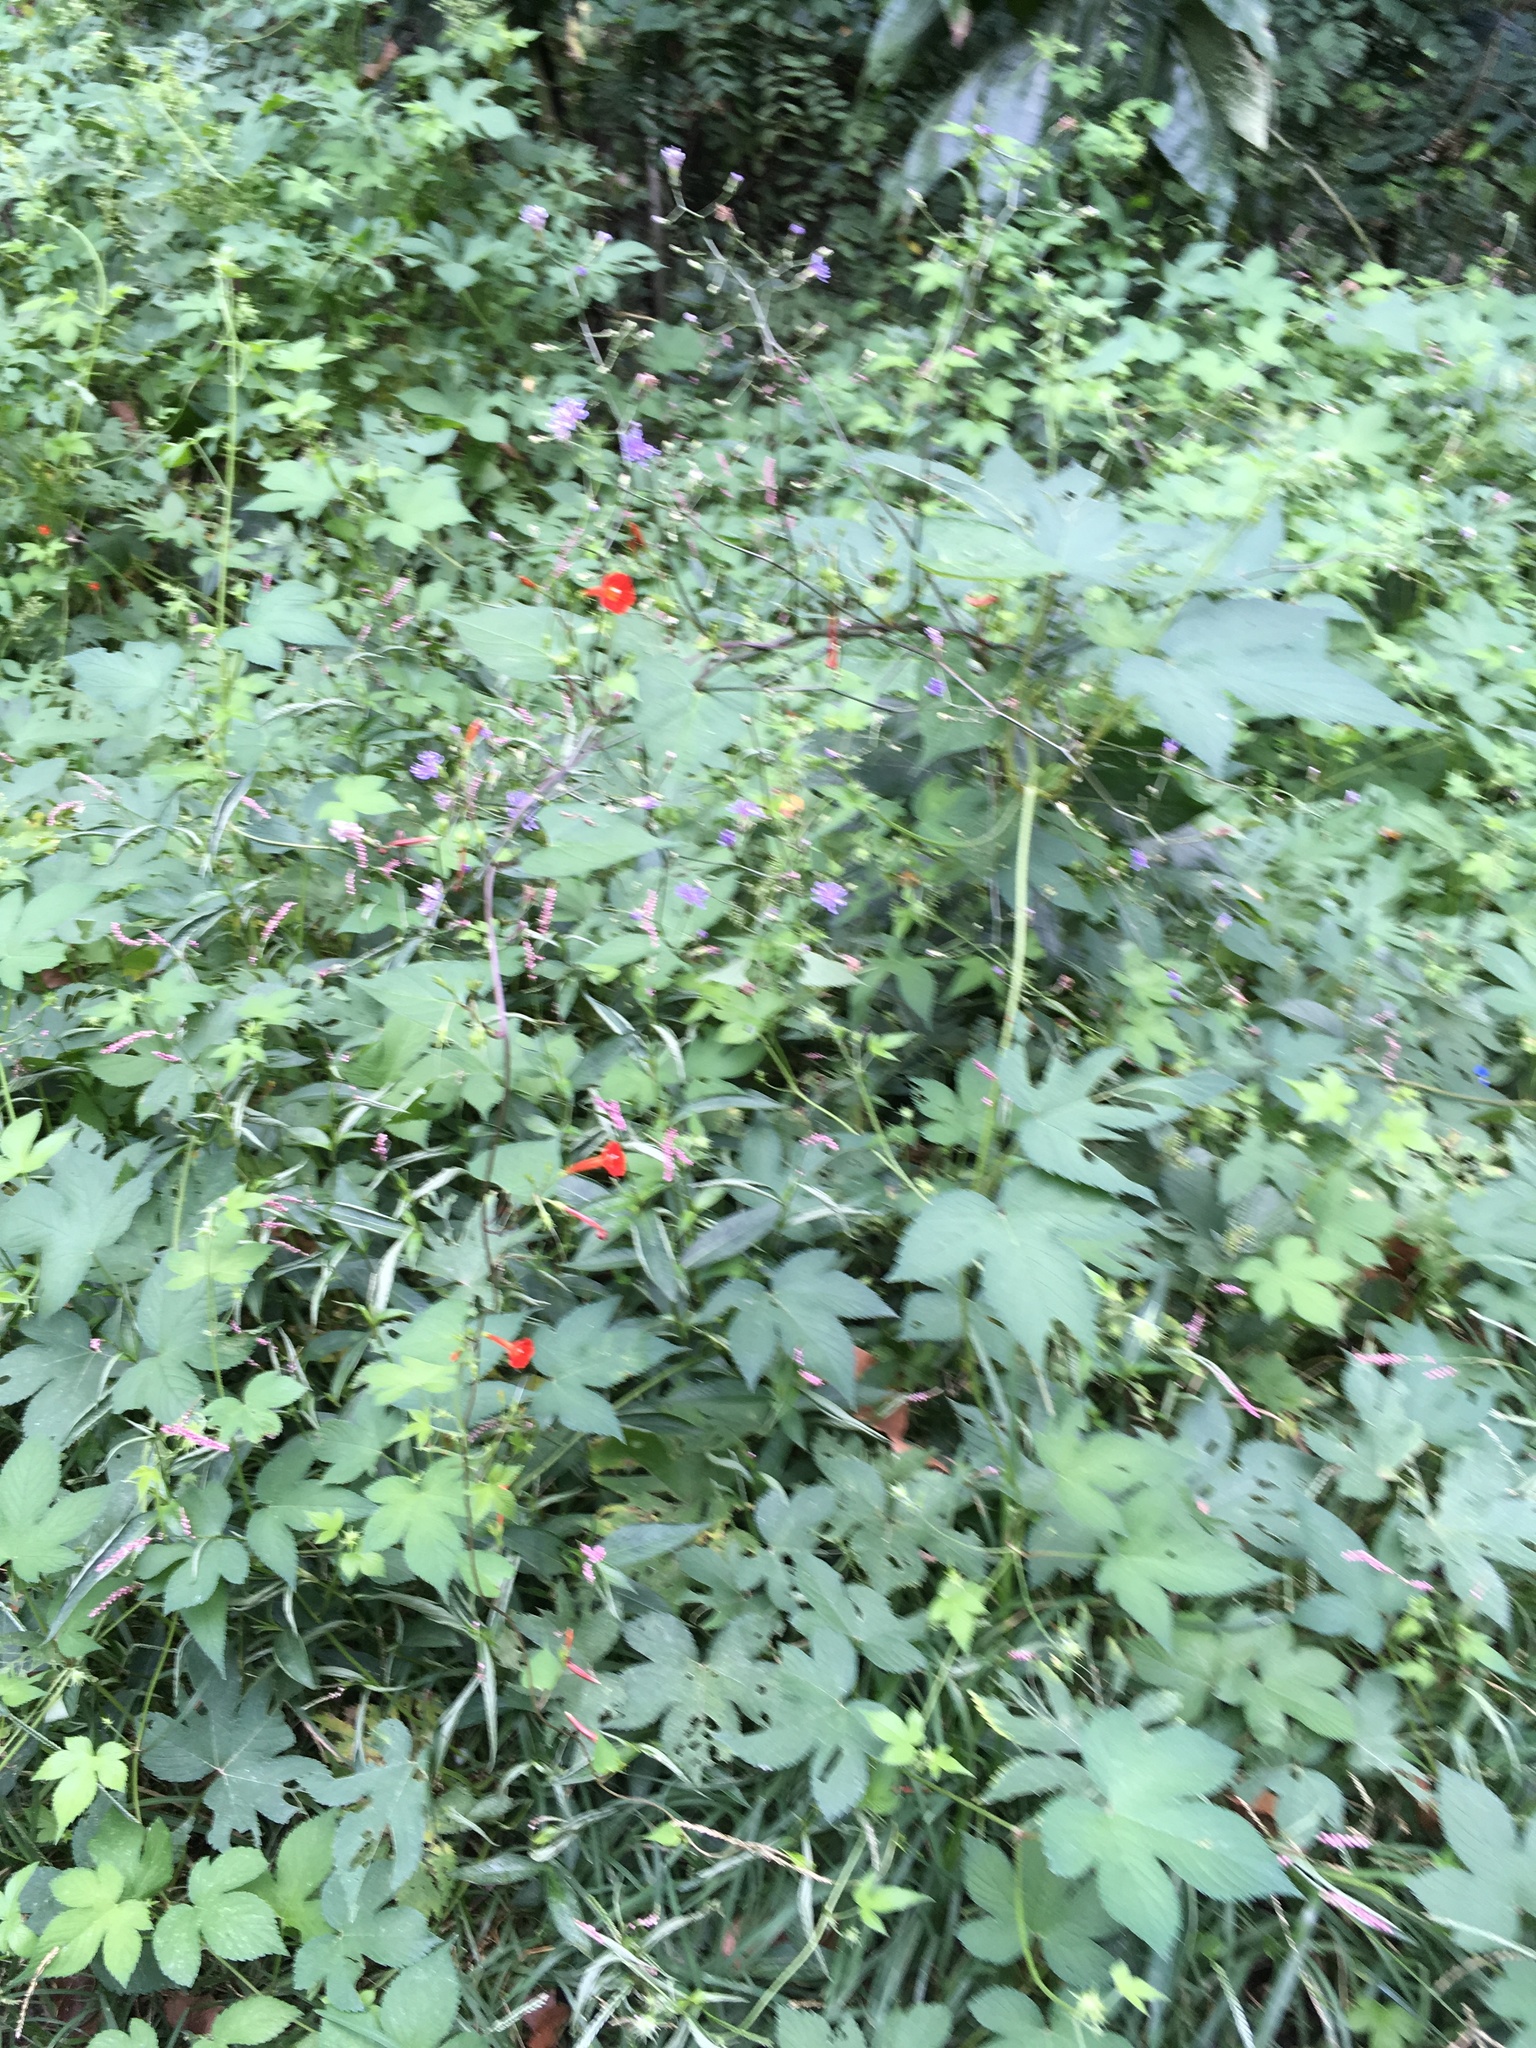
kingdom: Plantae
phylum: Tracheophyta
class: Magnoliopsida
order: Solanales
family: Convolvulaceae
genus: Ipomoea
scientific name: Ipomoea coccinea
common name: Red morning-glory
